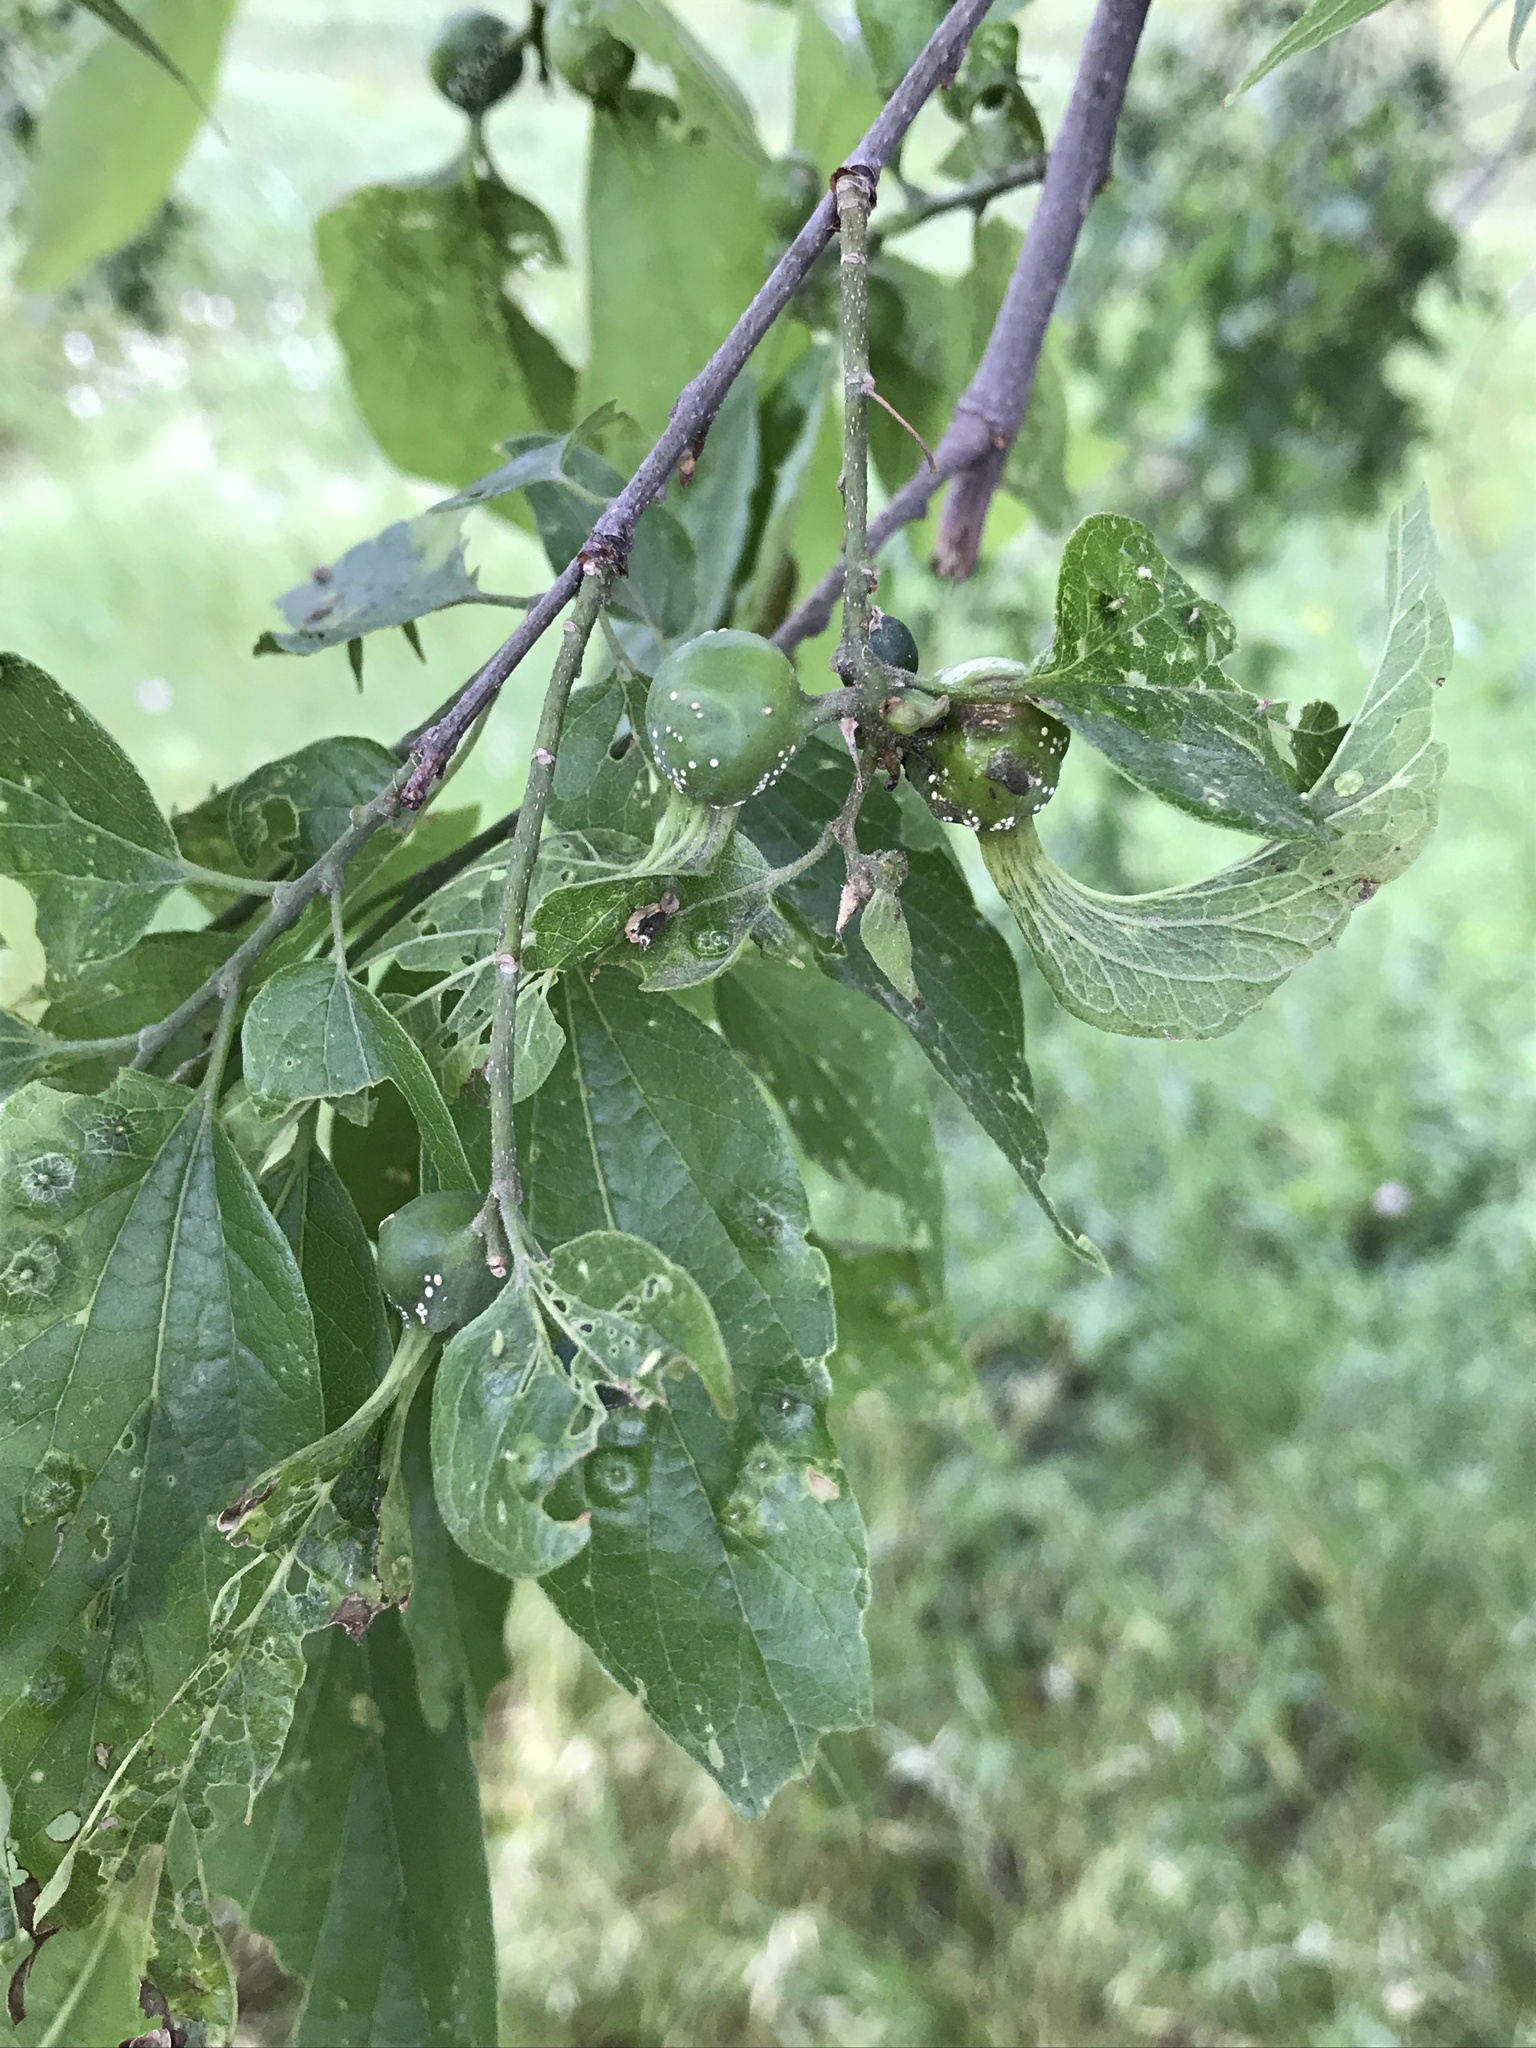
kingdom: Animalia
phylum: Arthropoda
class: Insecta
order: Hemiptera
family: Aphalaridae
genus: Pachypsylla
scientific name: Pachypsylla venusta
